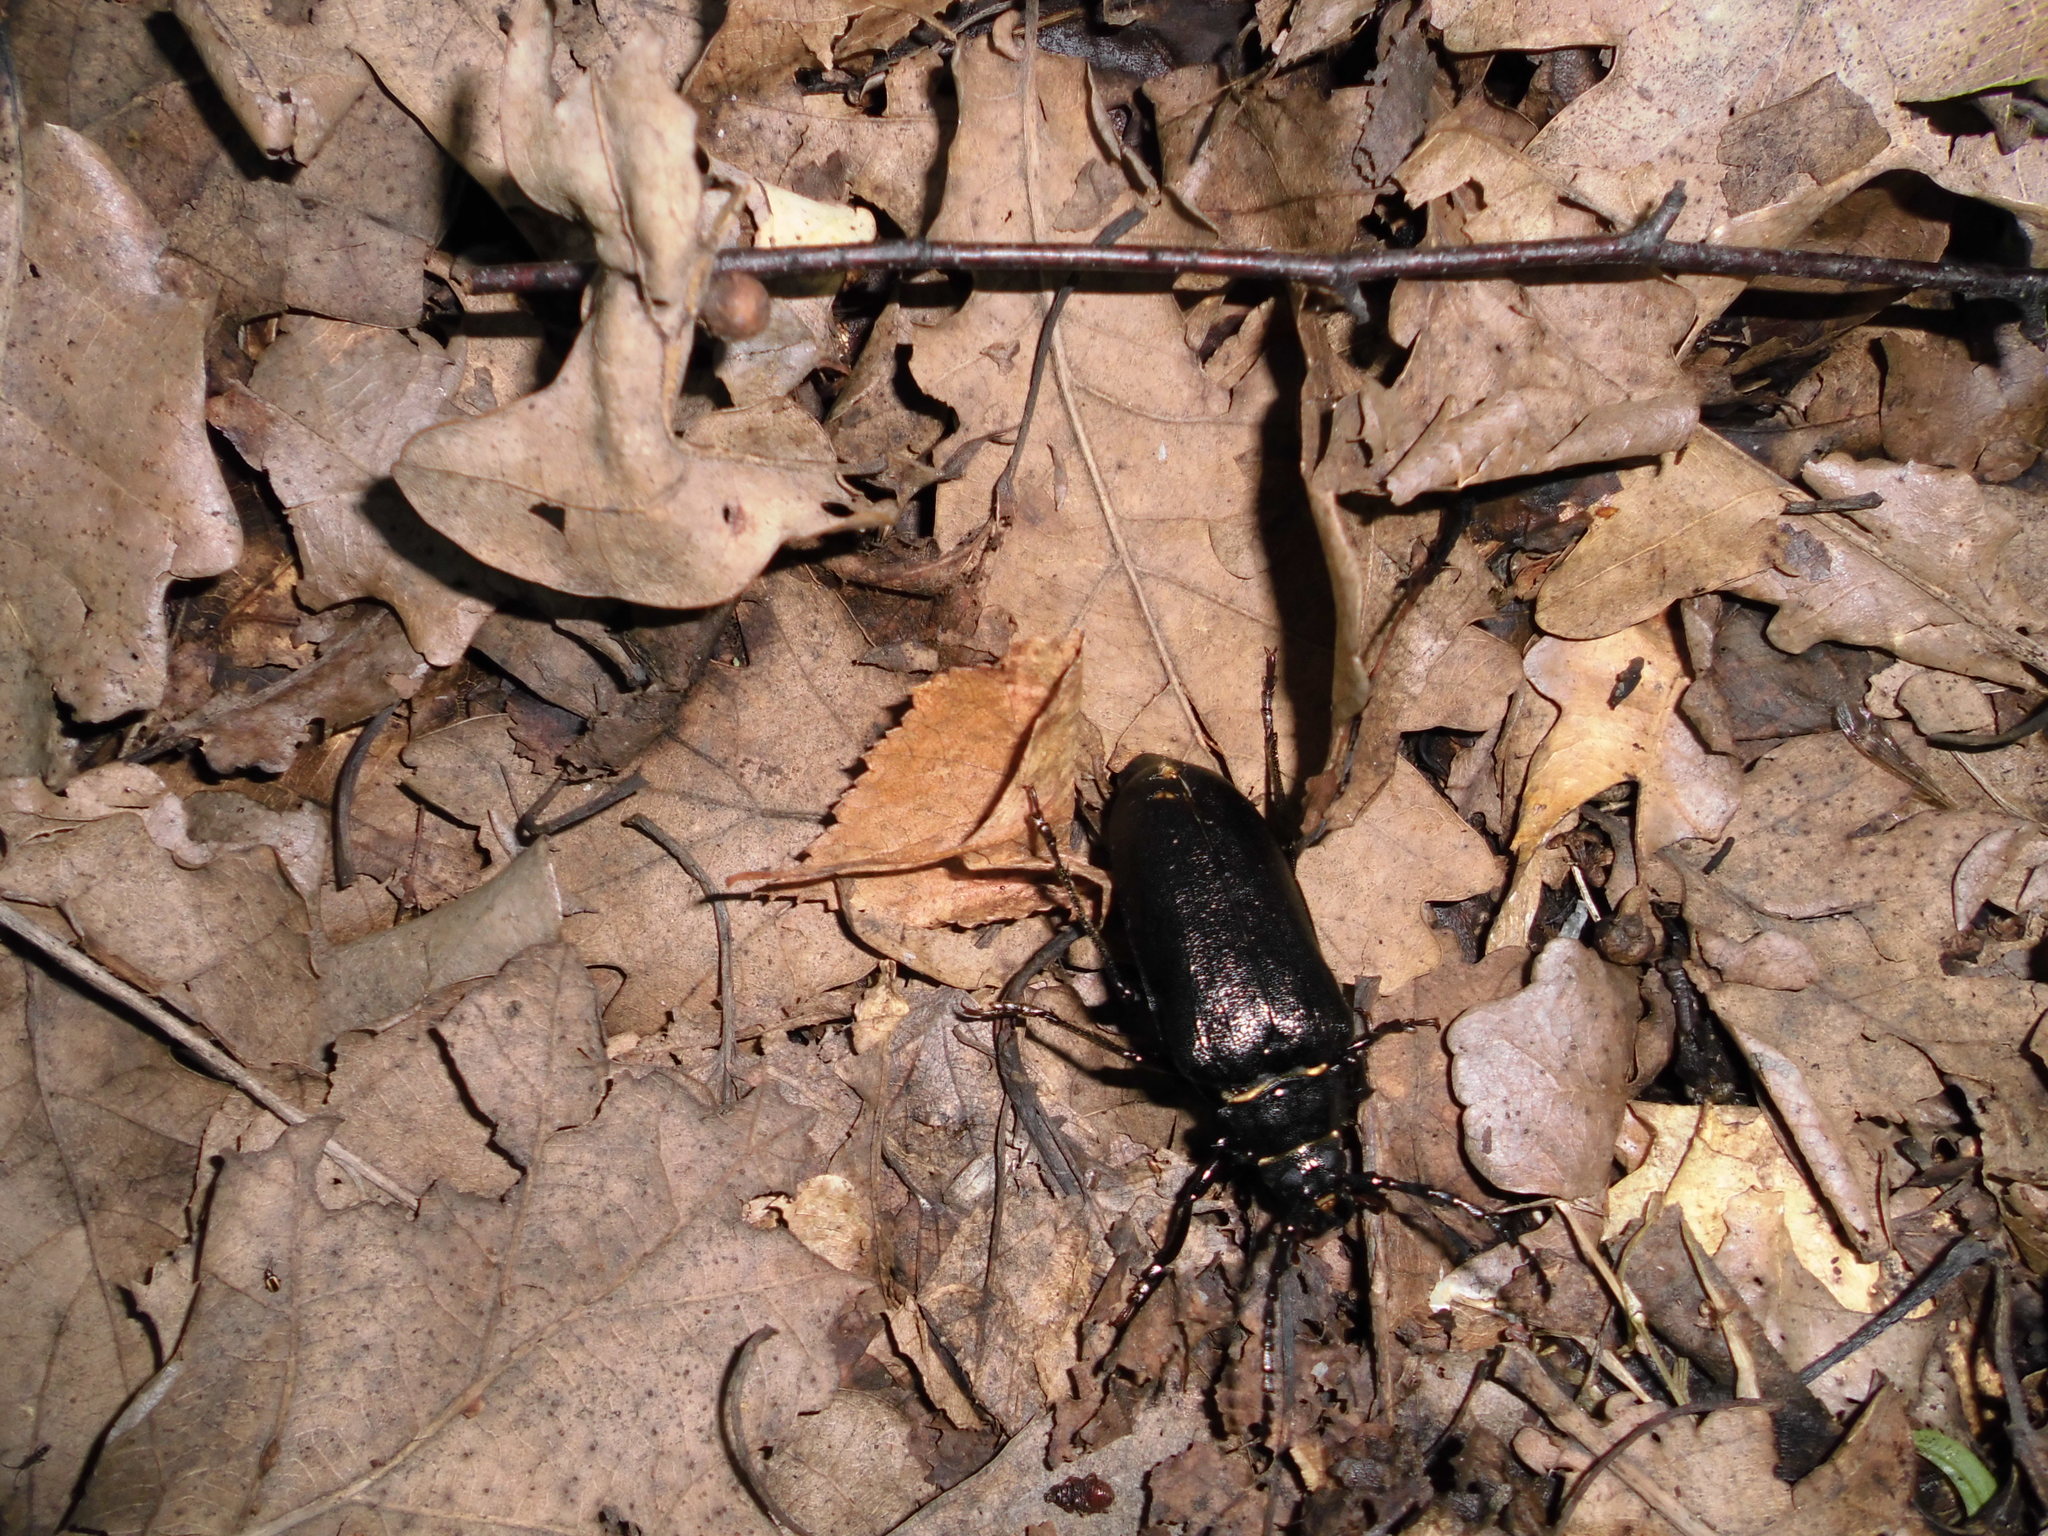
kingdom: Animalia
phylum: Arthropoda
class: Insecta
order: Coleoptera
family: Cerambycidae
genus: Prionus
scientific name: Prionus coriarius
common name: Tanner beetle
